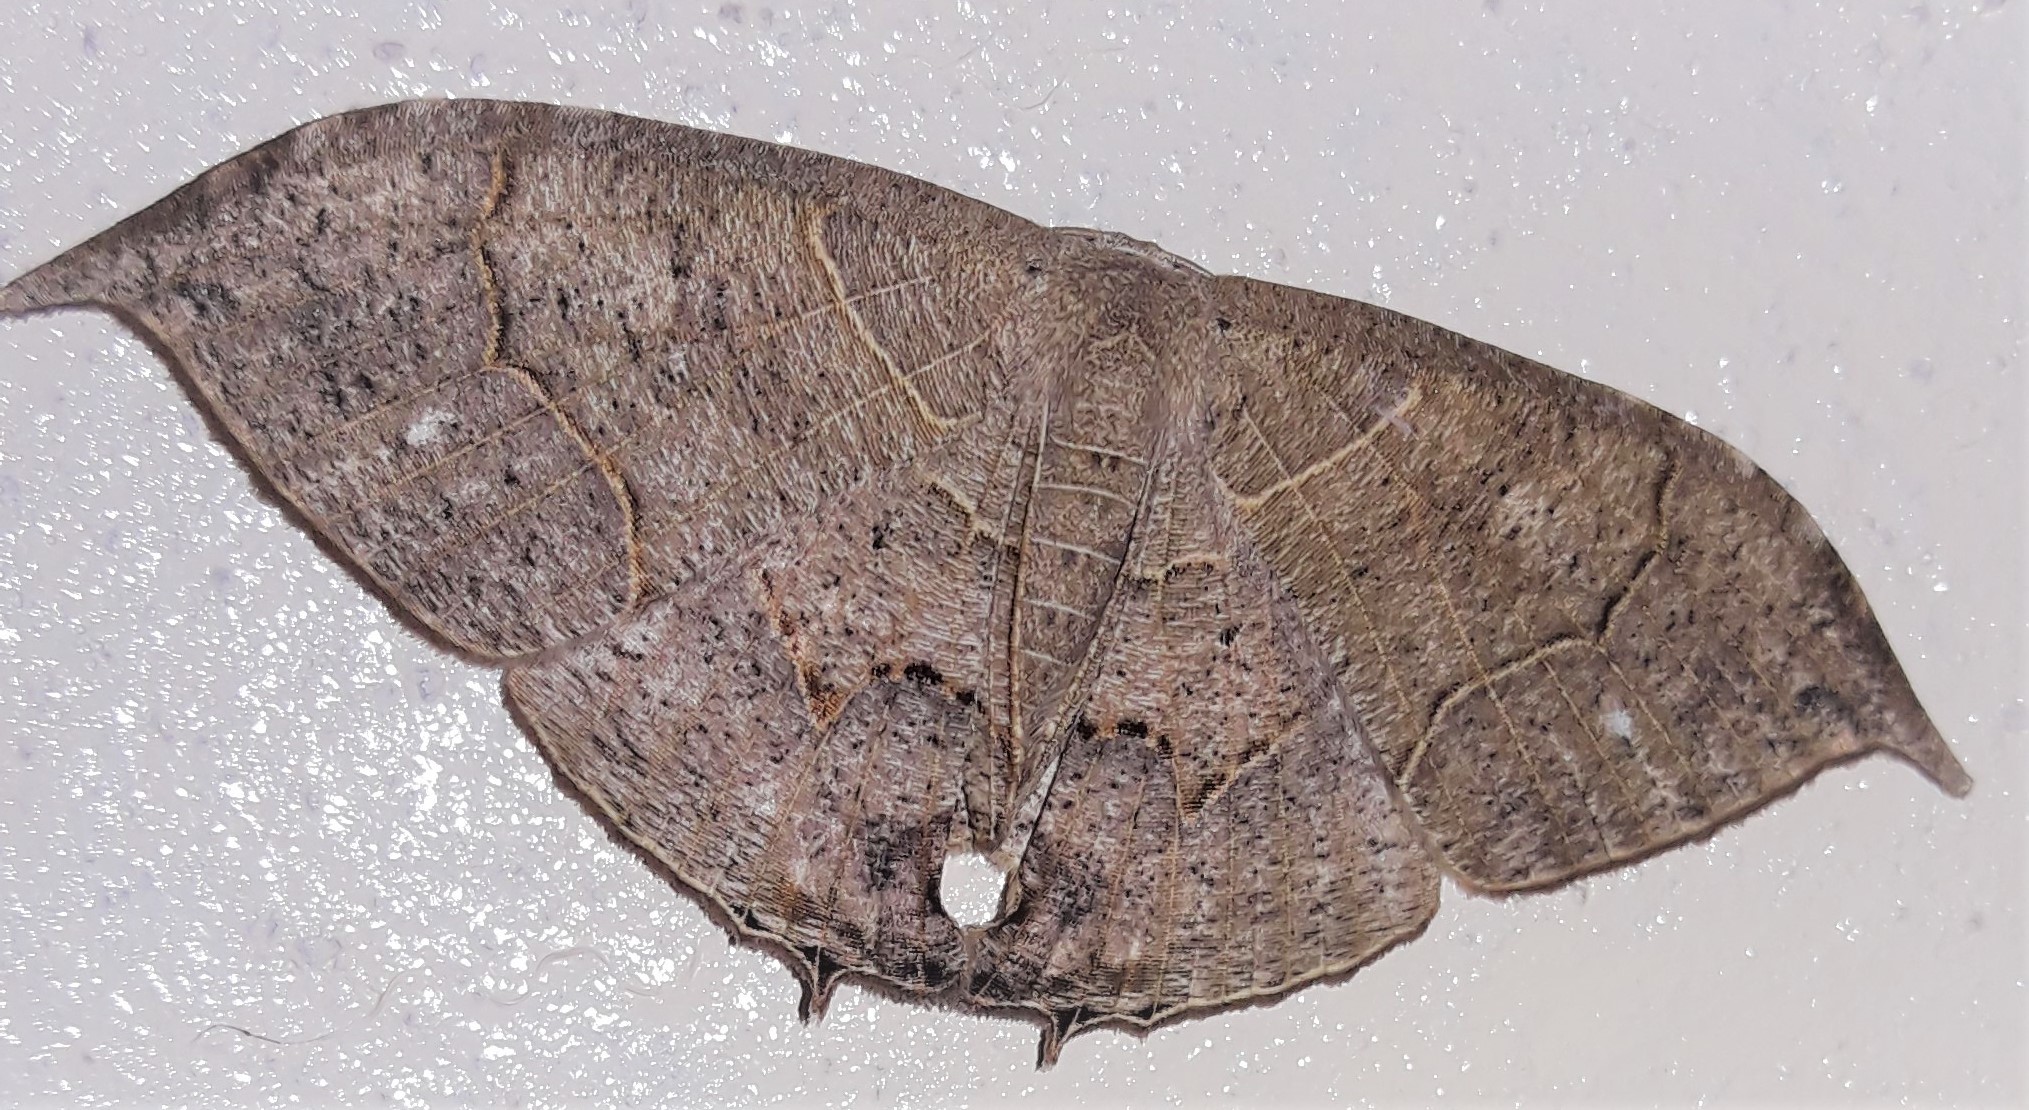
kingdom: Animalia
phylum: Arthropoda
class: Insecta
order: Lepidoptera
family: Uraniidae
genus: Coelurotricha
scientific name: Coelurotricha curvilinea
